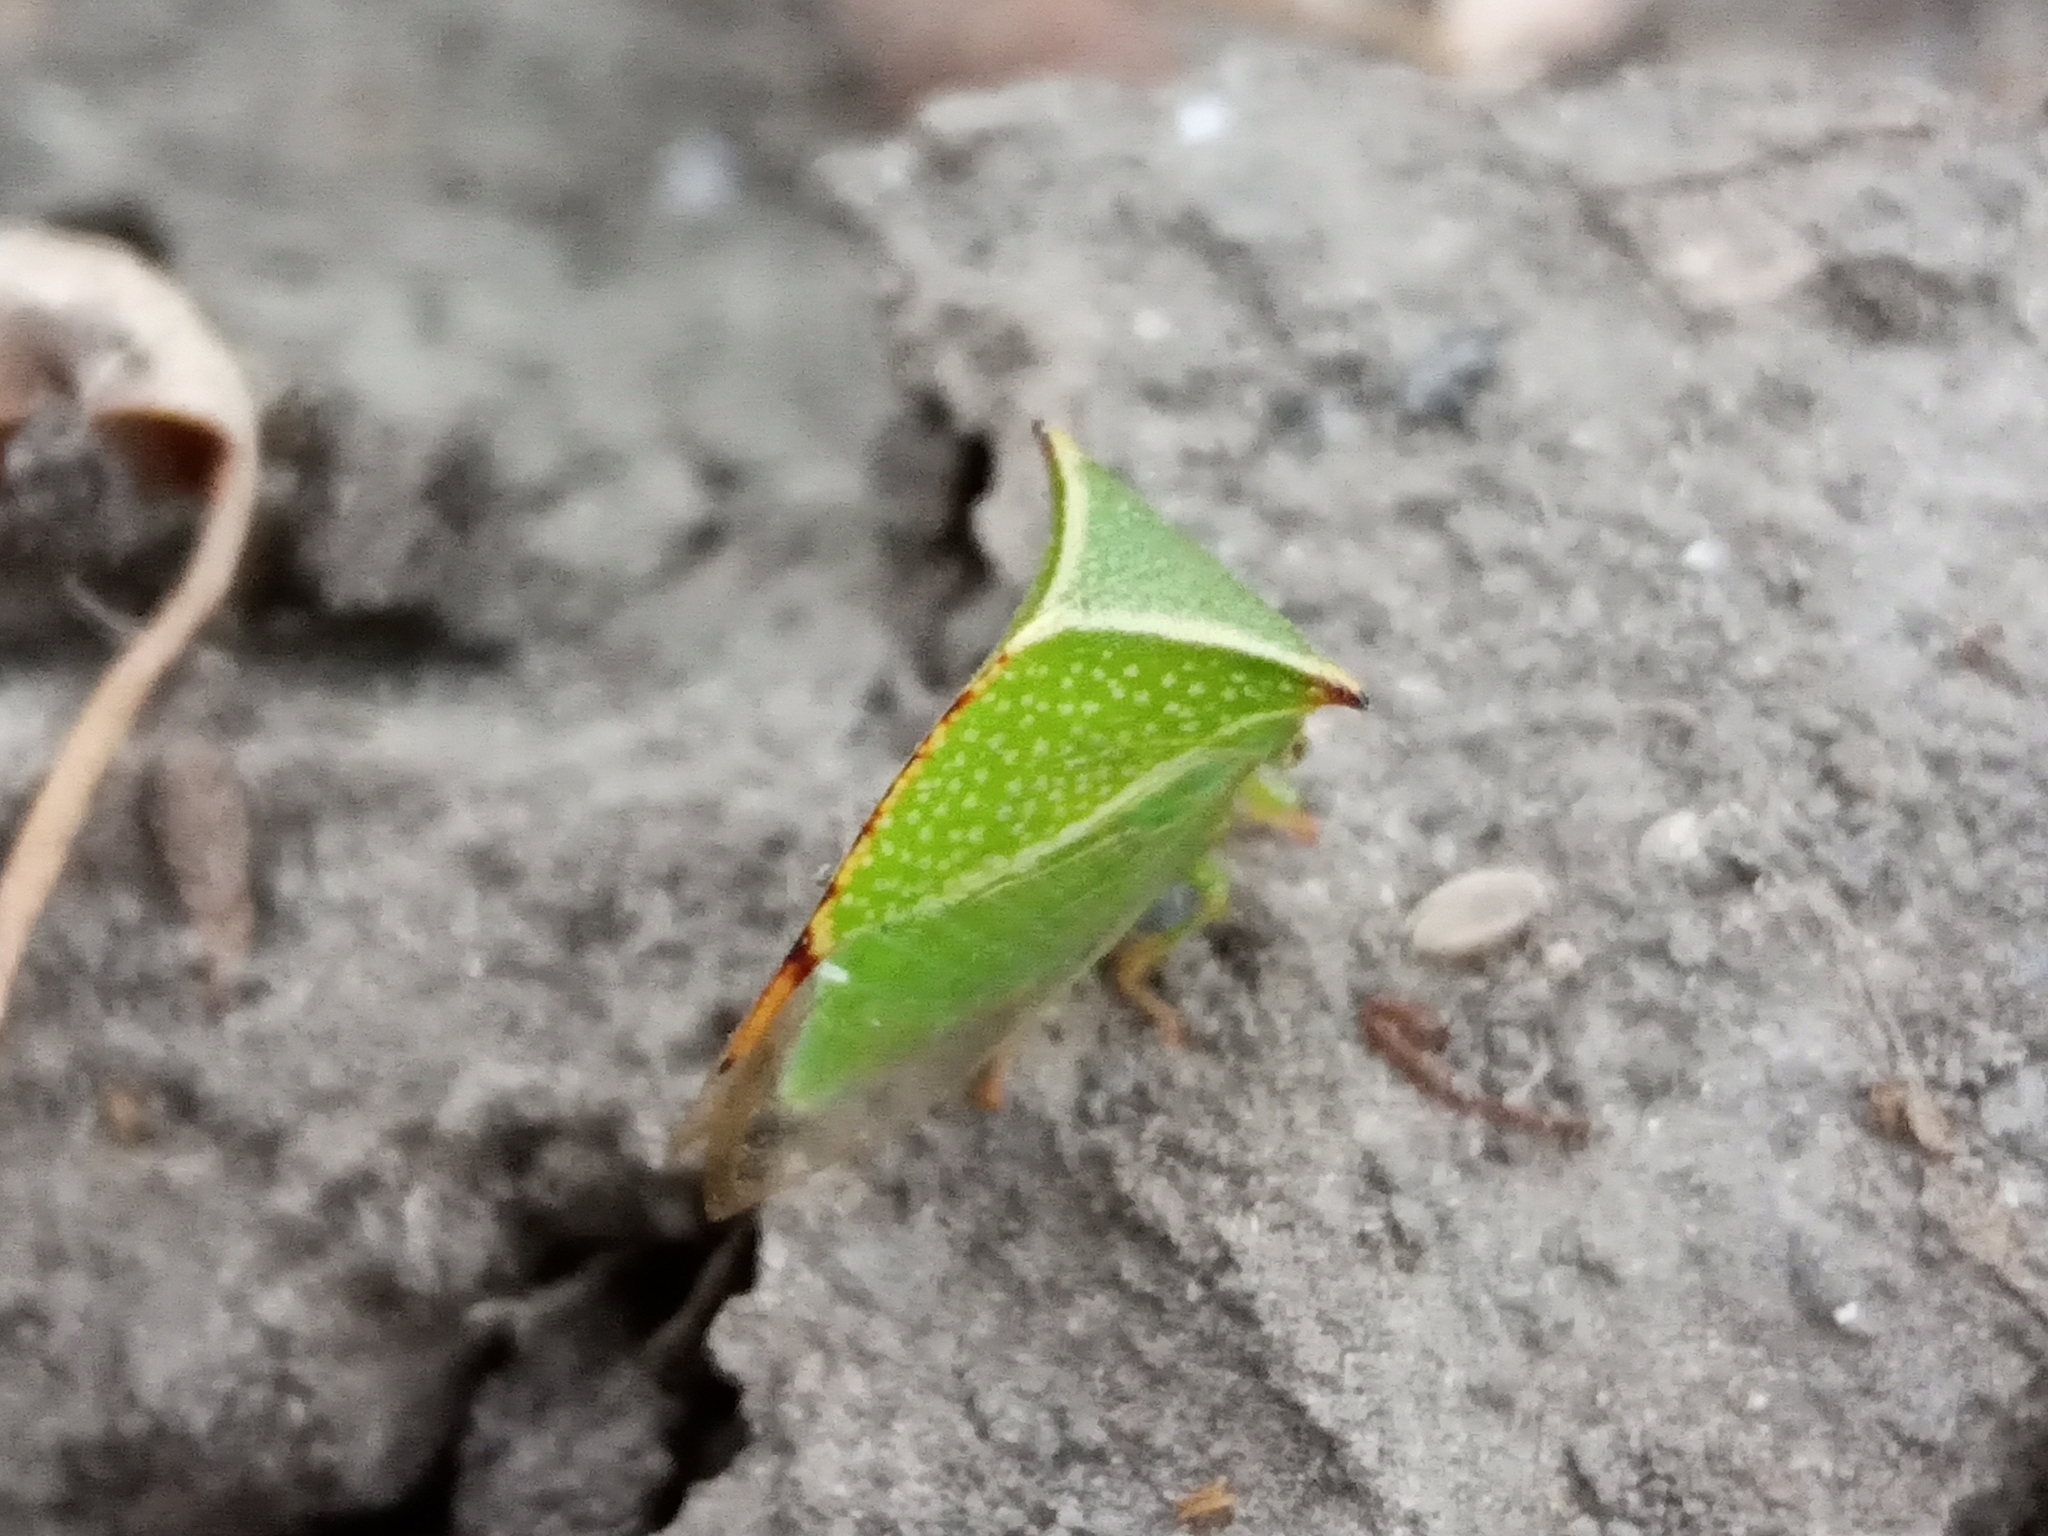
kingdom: Animalia
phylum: Arthropoda
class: Insecta
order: Hemiptera
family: Membracidae
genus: Stictocephala
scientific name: Stictocephala bisonia
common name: American buffalo treehopper
